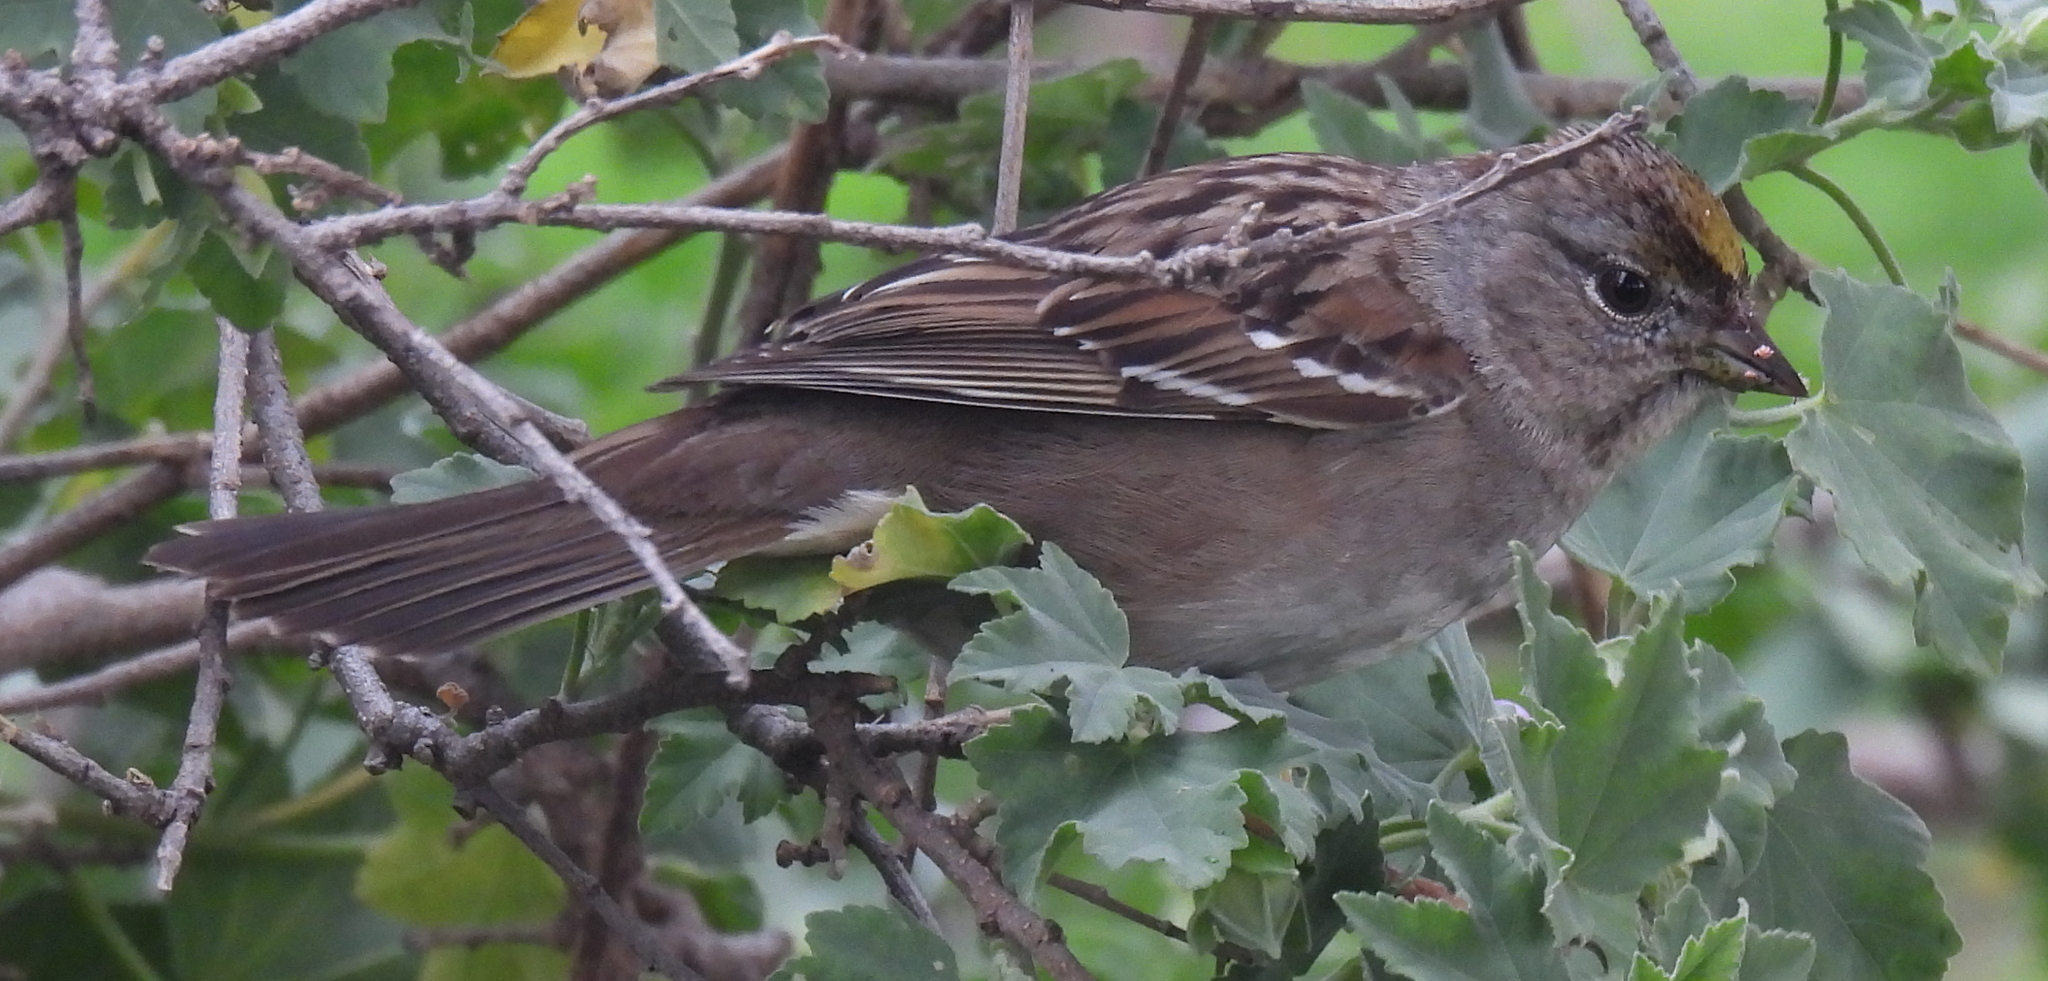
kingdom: Animalia
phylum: Chordata
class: Aves
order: Passeriformes
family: Passerellidae
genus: Zonotrichia
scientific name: Zonotrichia atricapilla
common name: Golden-crowned sparrow
